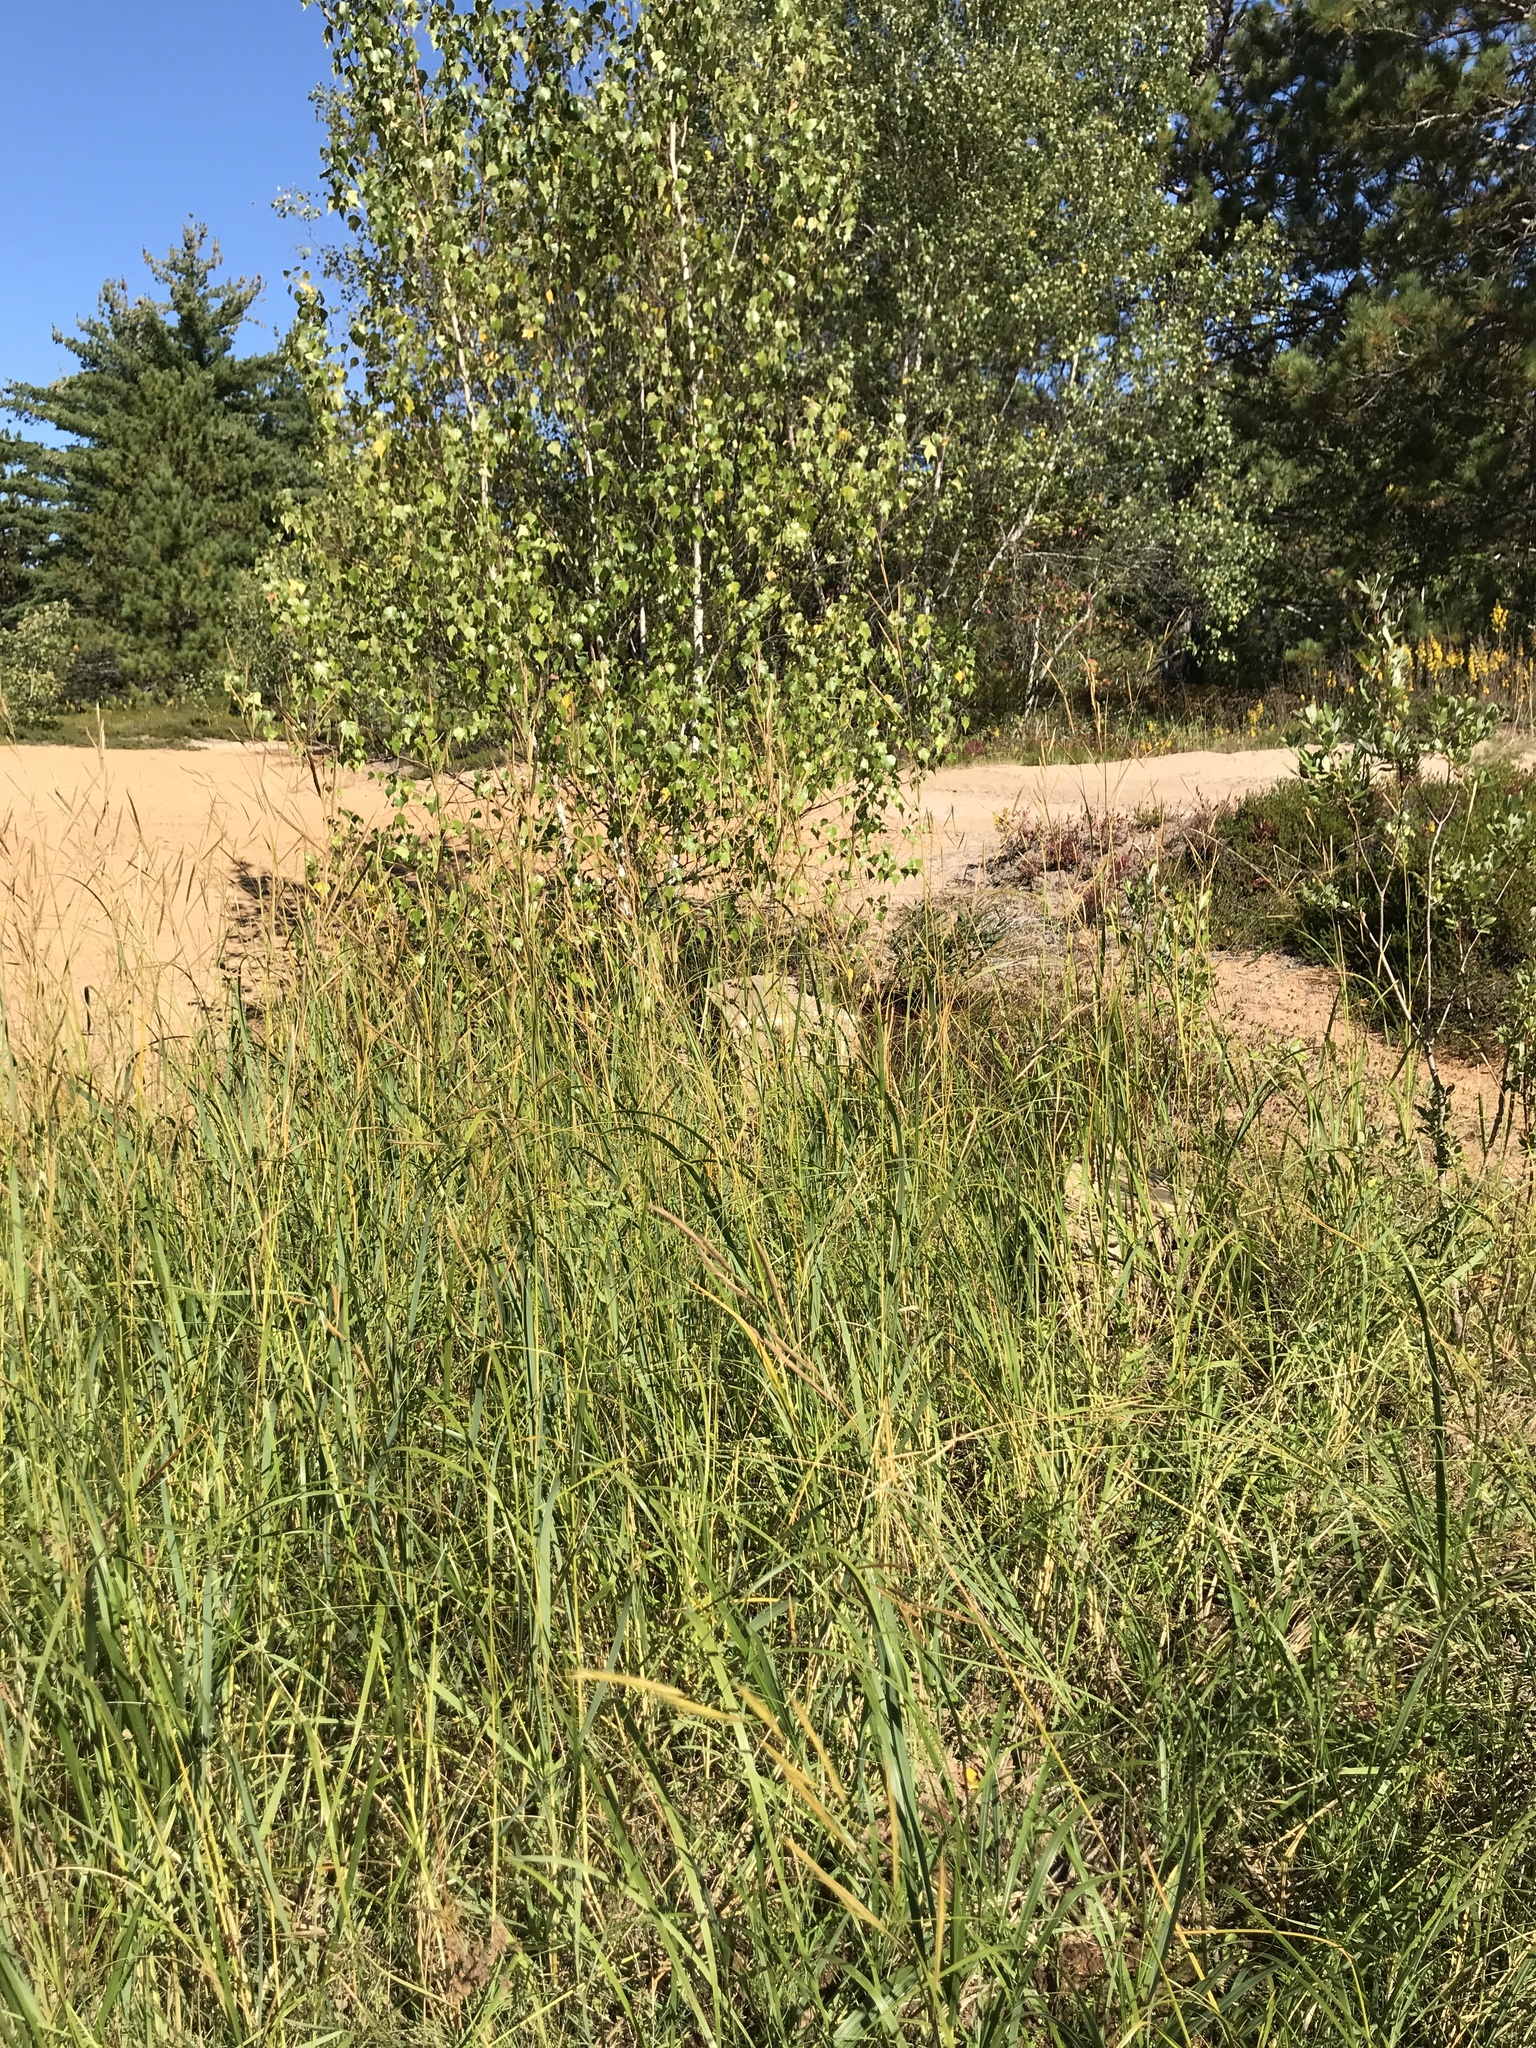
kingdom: Plantae
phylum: Tracheophyta
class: Liliopsida
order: Poales
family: Poaceae
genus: Sporobolus
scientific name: Sporobolus michauxianus
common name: Freshwater cordgrass
